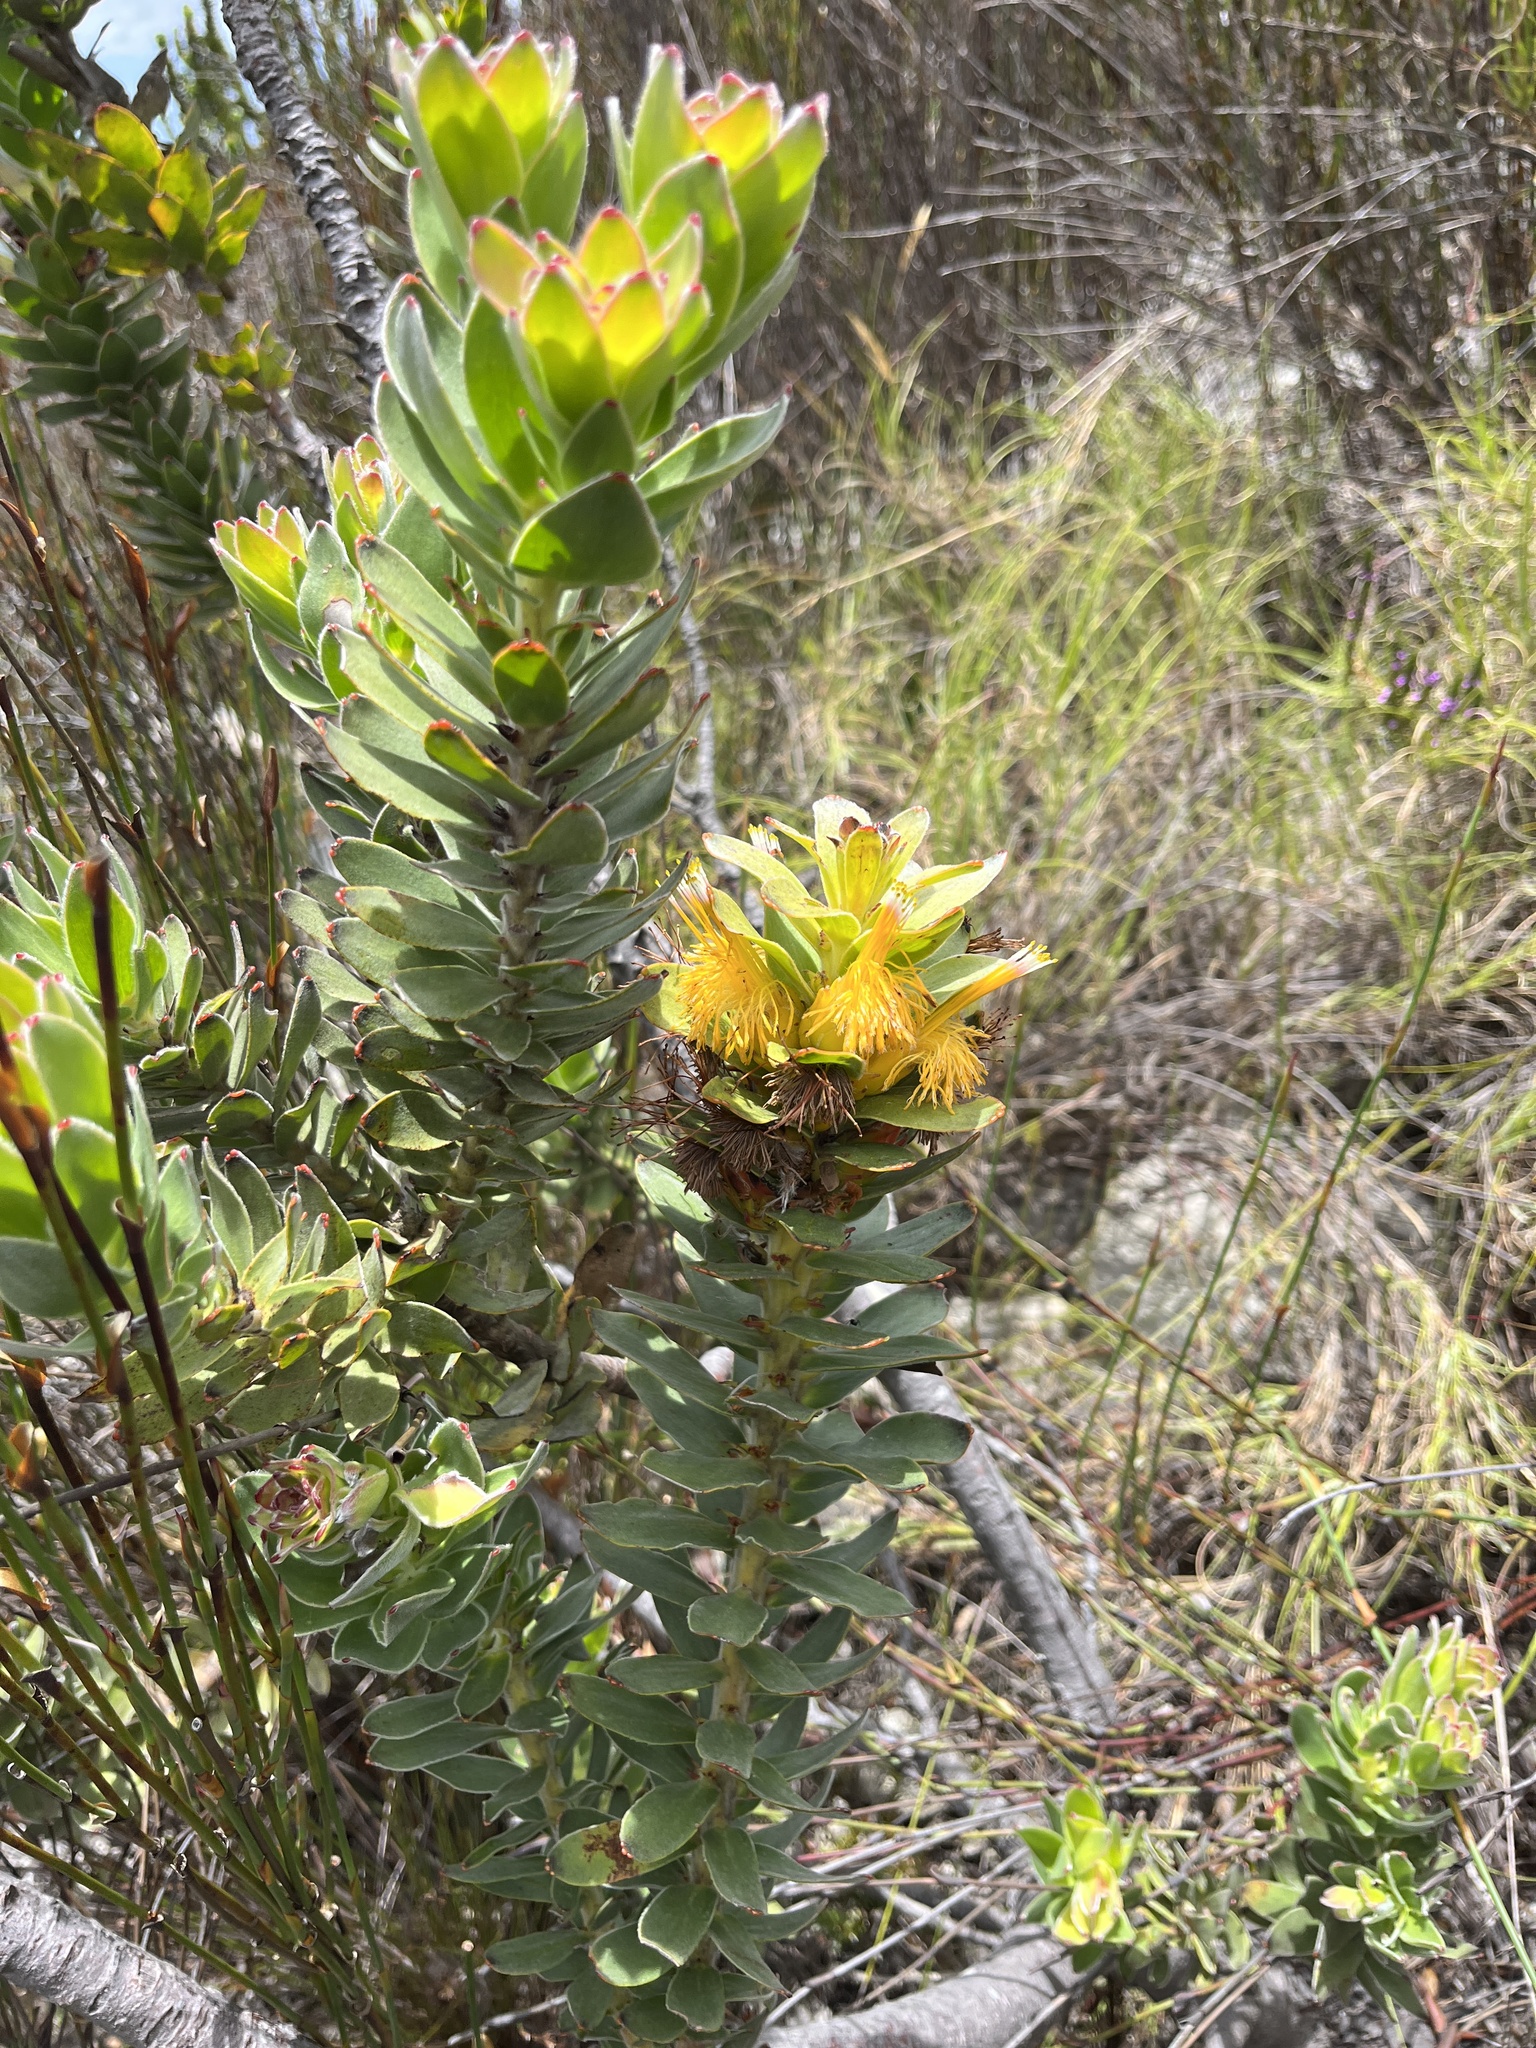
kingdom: Plantae
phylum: Tracheophyta
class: Magnoliopsida
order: Proteales
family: Proteaceae
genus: Mimetes
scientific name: Mimetes saxatilis
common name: Limestone pagoda
